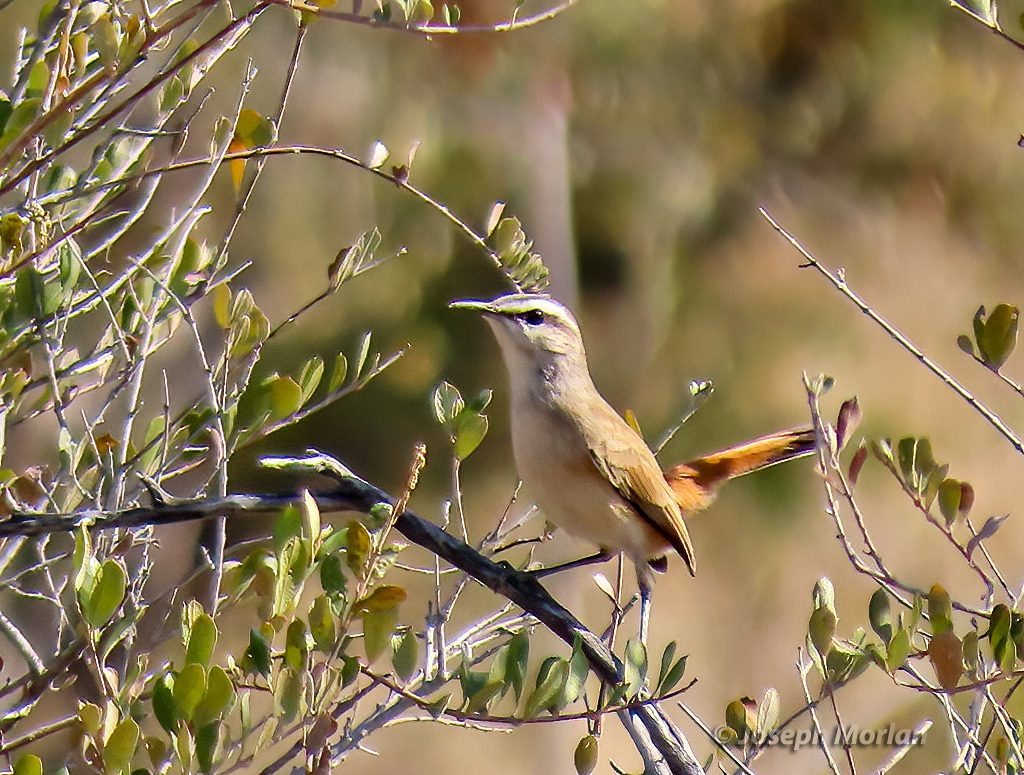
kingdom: Animalia
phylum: Chordata
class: Aves
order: Passeriformes
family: Muscicapidae
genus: Erythropygia
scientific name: Erythropygia paena
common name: Kalahari scrub robin
